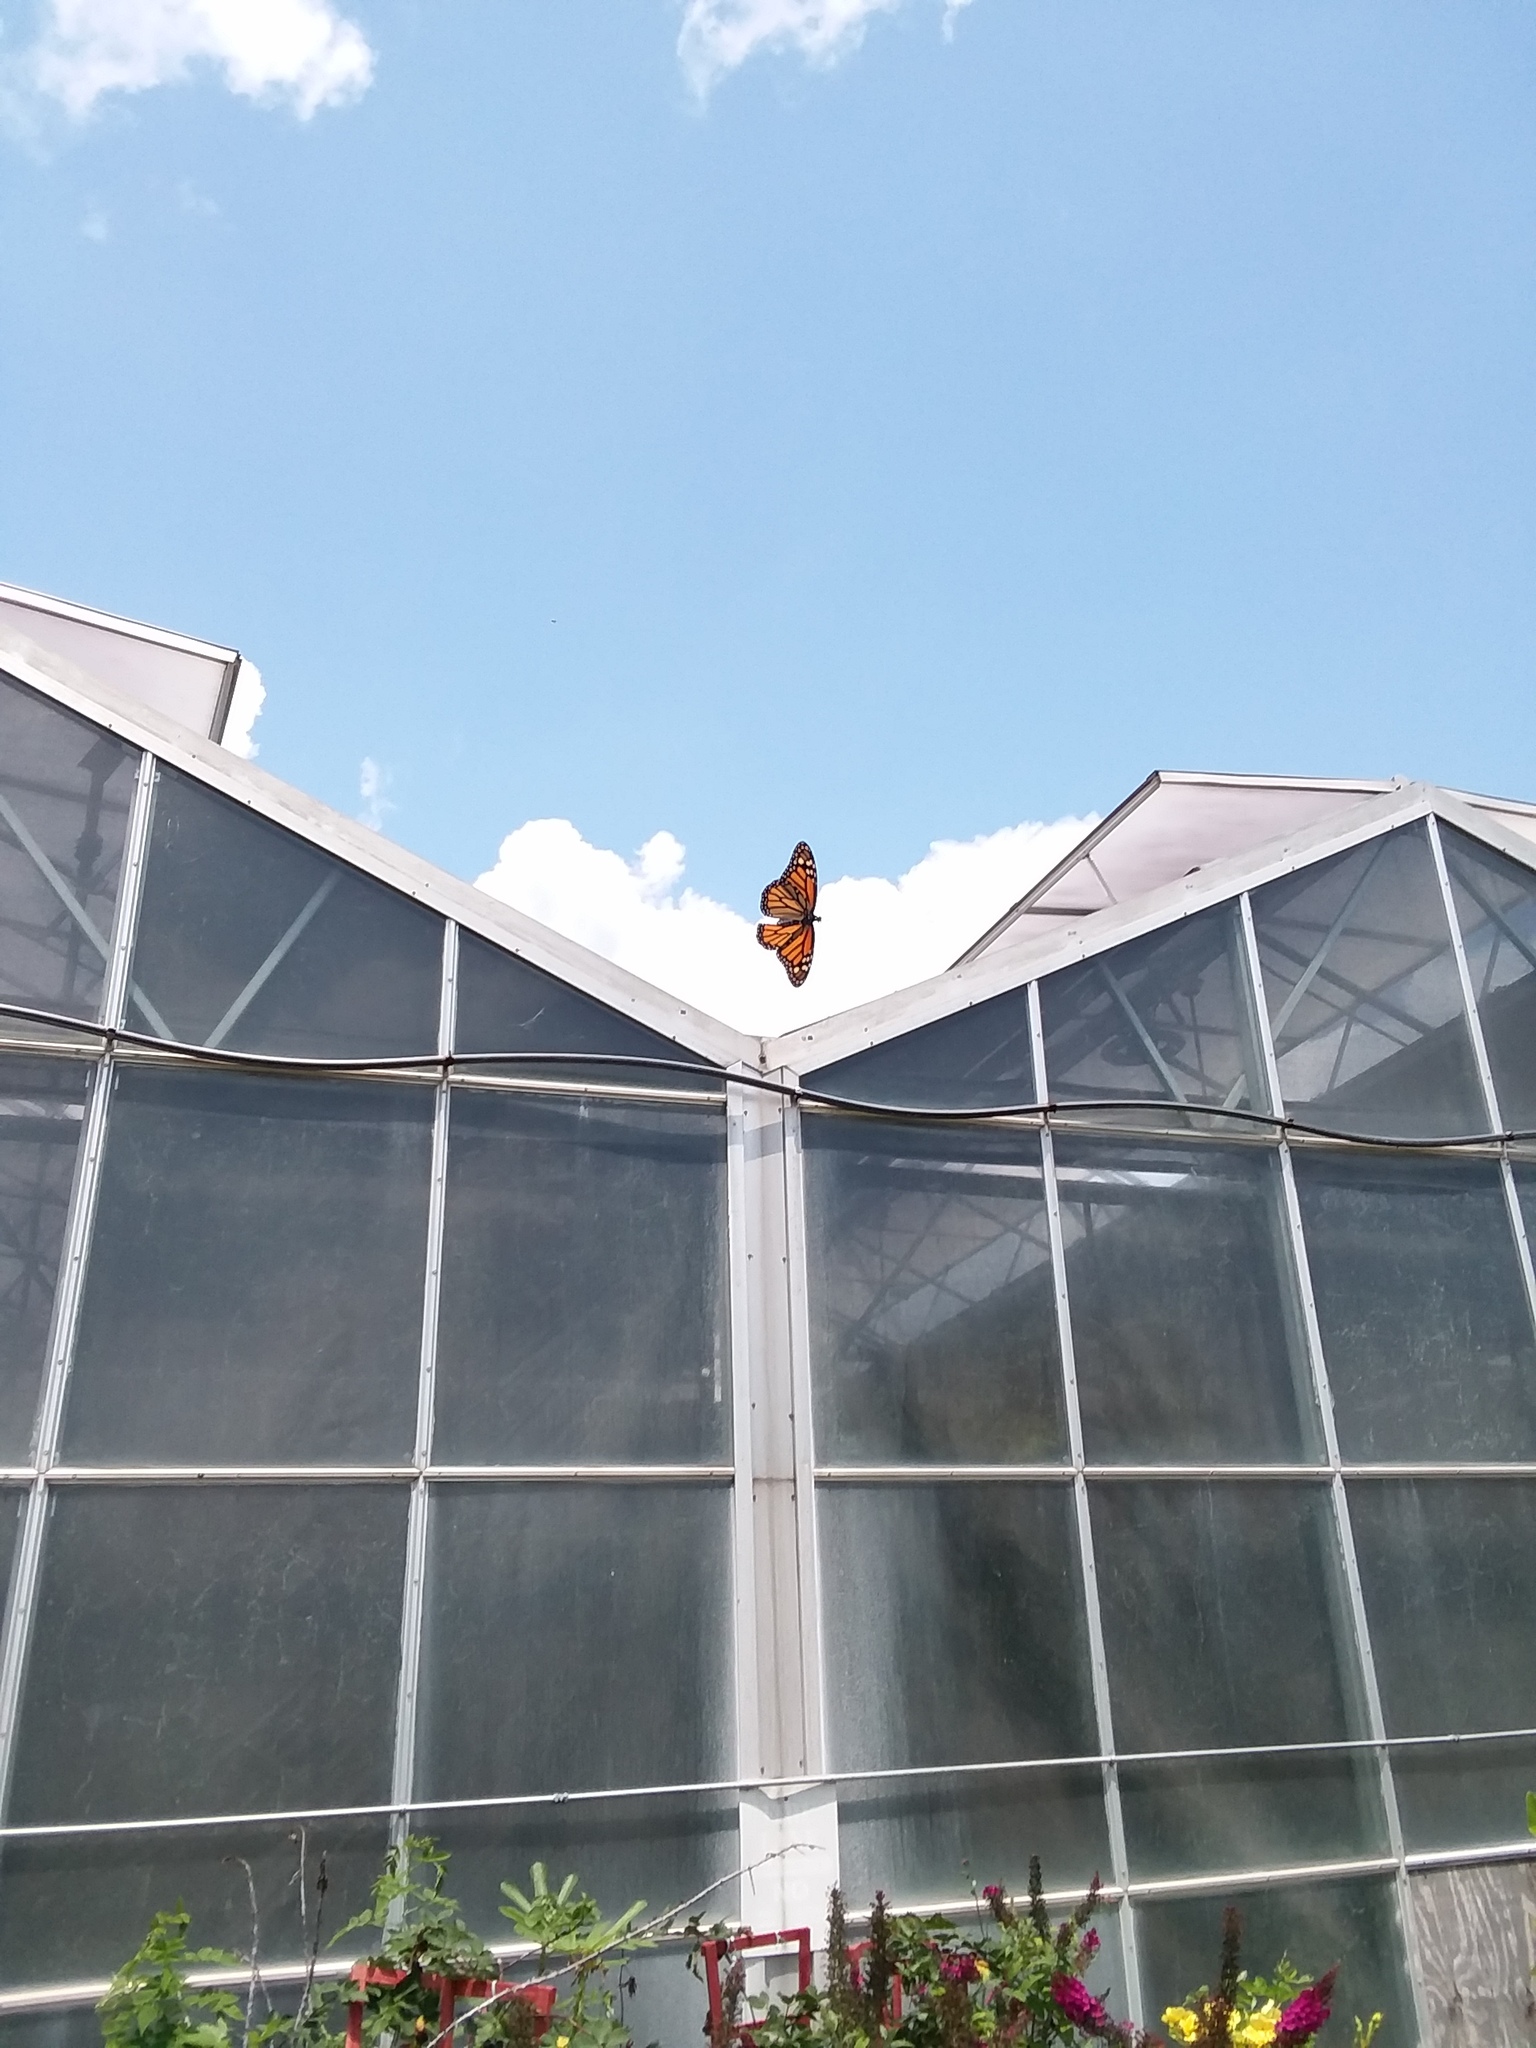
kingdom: Animalia
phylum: Arthropoda
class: Insecta
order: Lepidoptera
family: Nymphalidae
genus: Danaus
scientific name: Danaus plexippus
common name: Monarch
